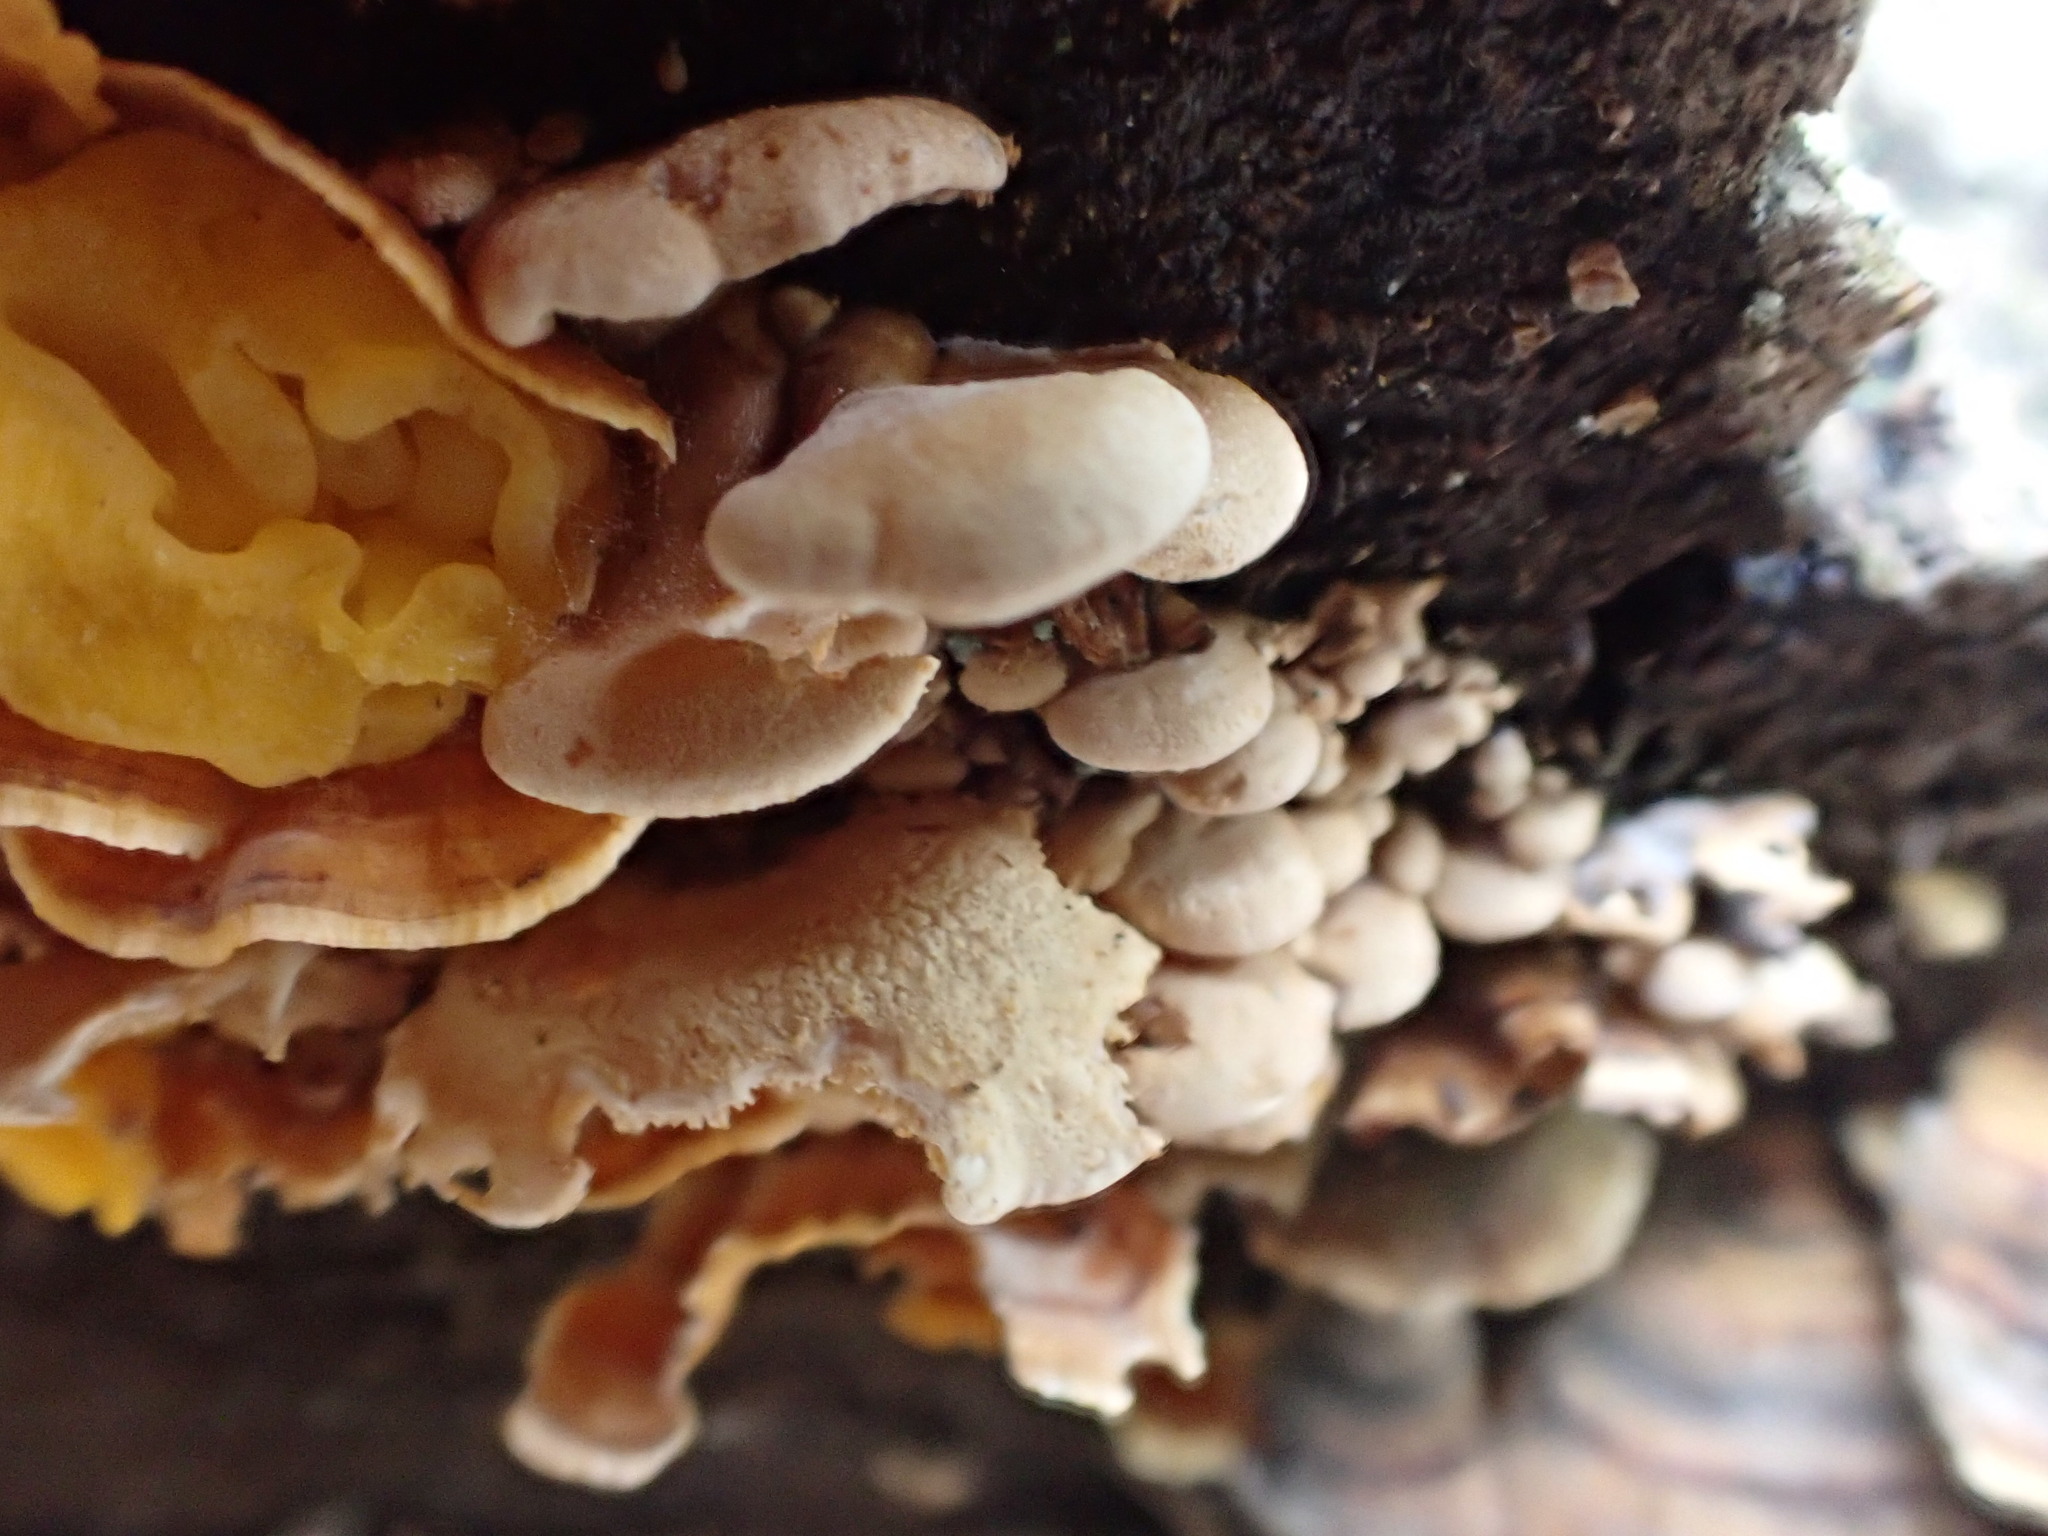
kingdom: Fungi
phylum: Basidiomycota
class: Agaricomycetes
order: Agaricales
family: Mycenaceae
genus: Panellus
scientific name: Panellus stipticus
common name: Bitter oysterling
